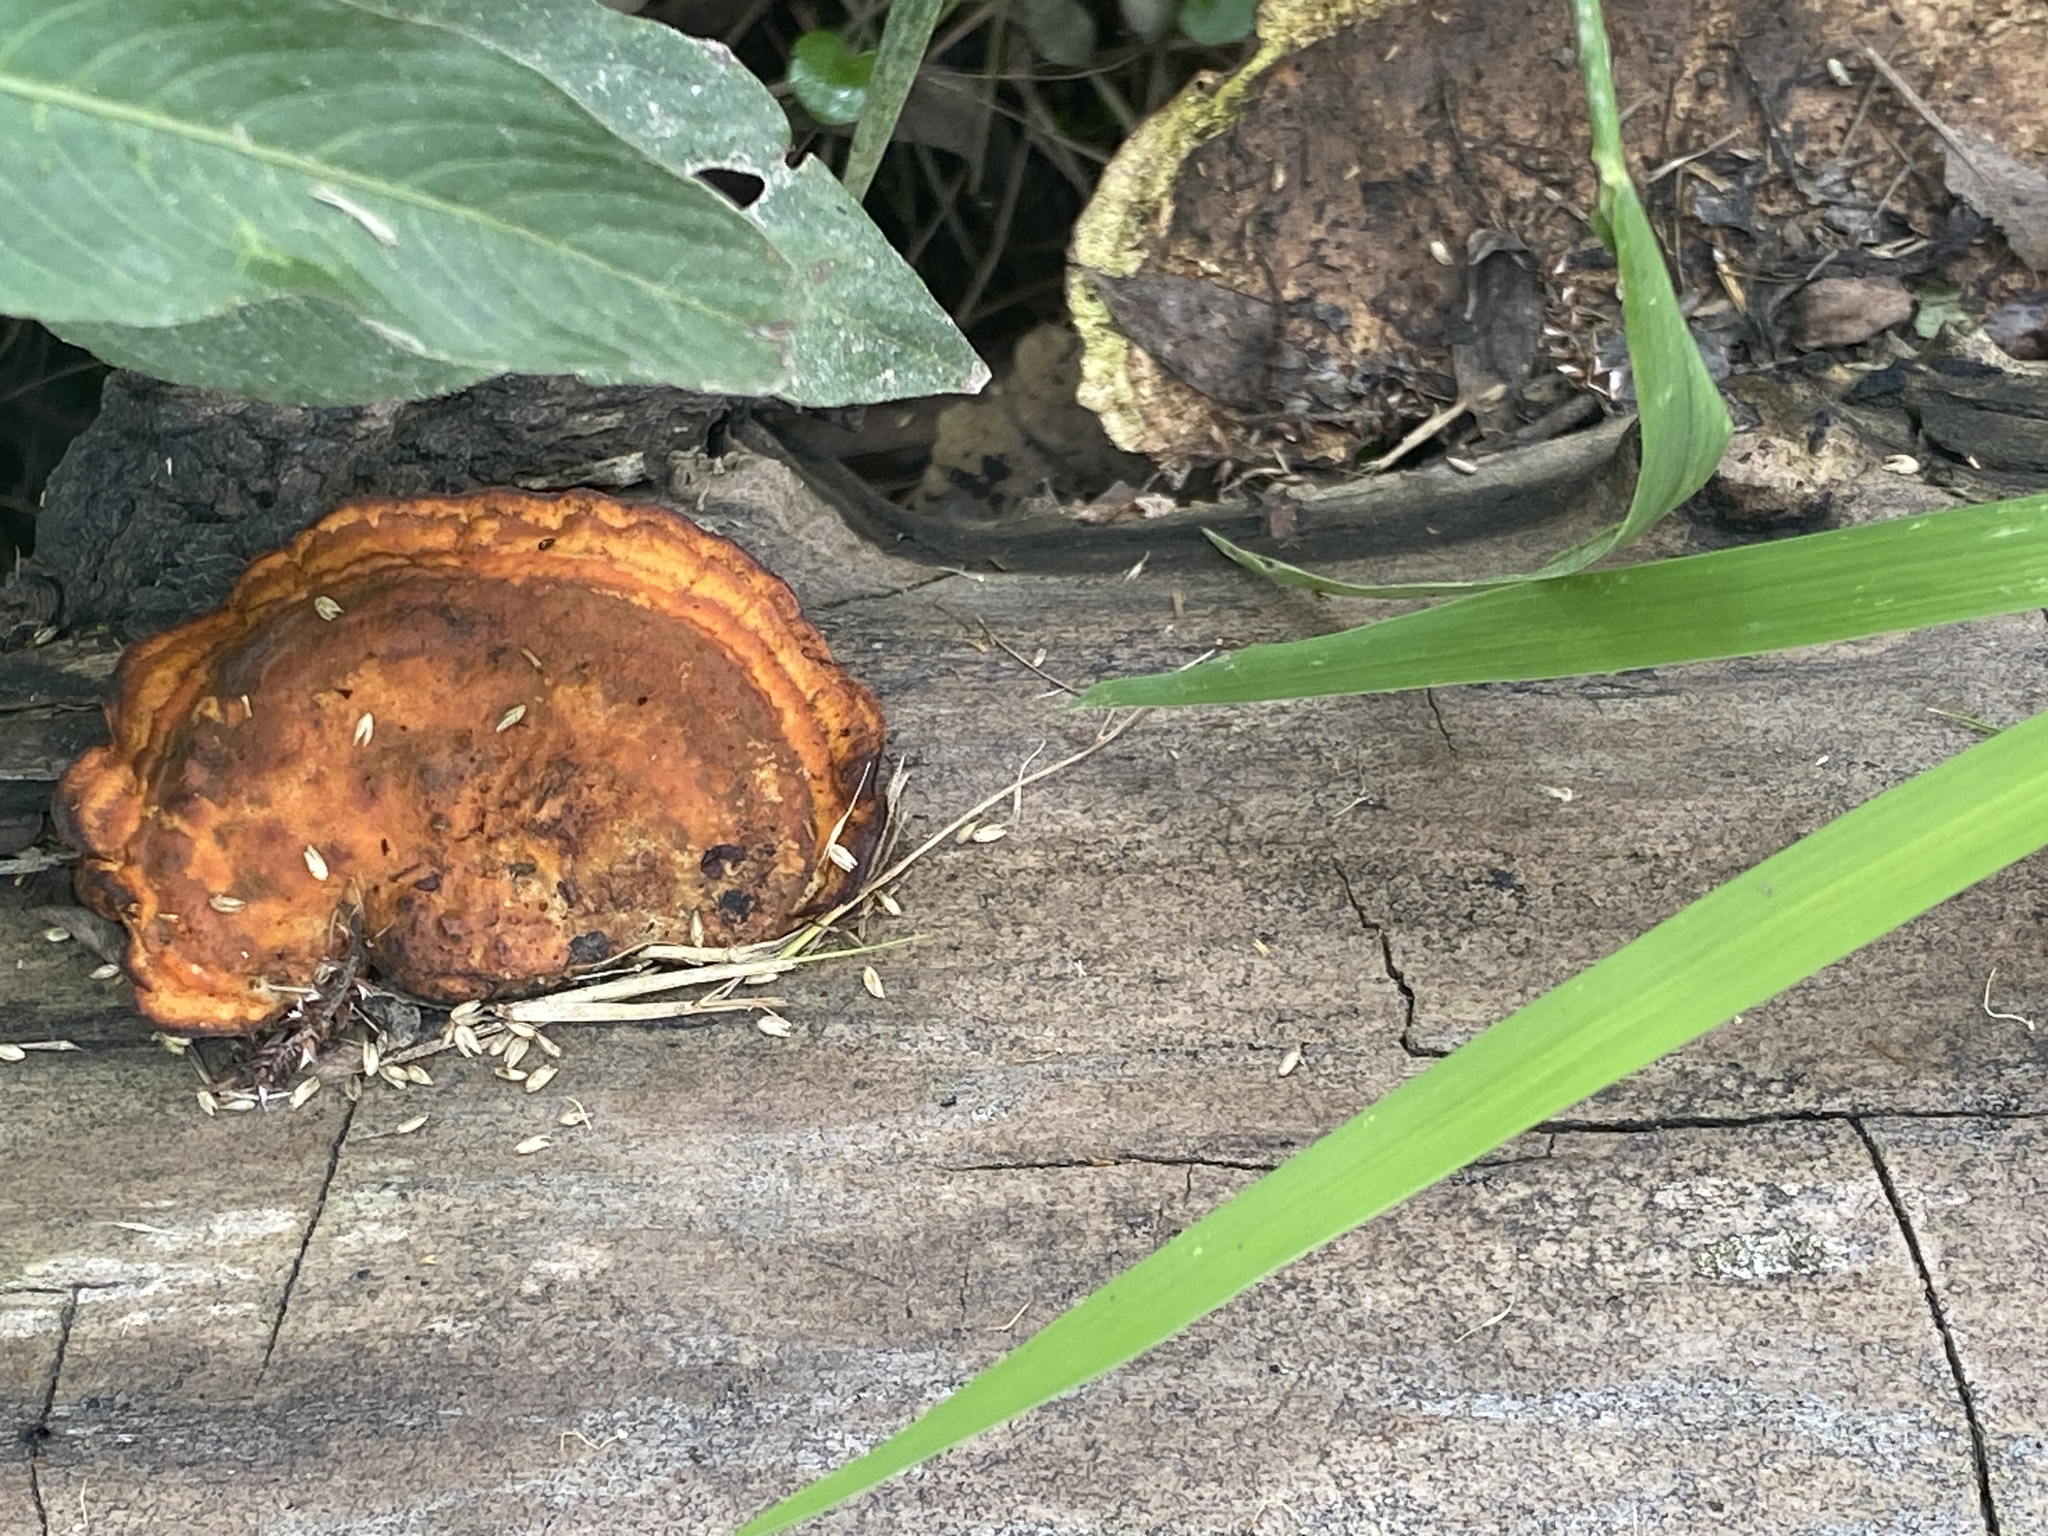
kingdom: Fungi
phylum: Basidiomycota
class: Agaricomycetes
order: Polyporales
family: Polyporaceae
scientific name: Polyporaceae
